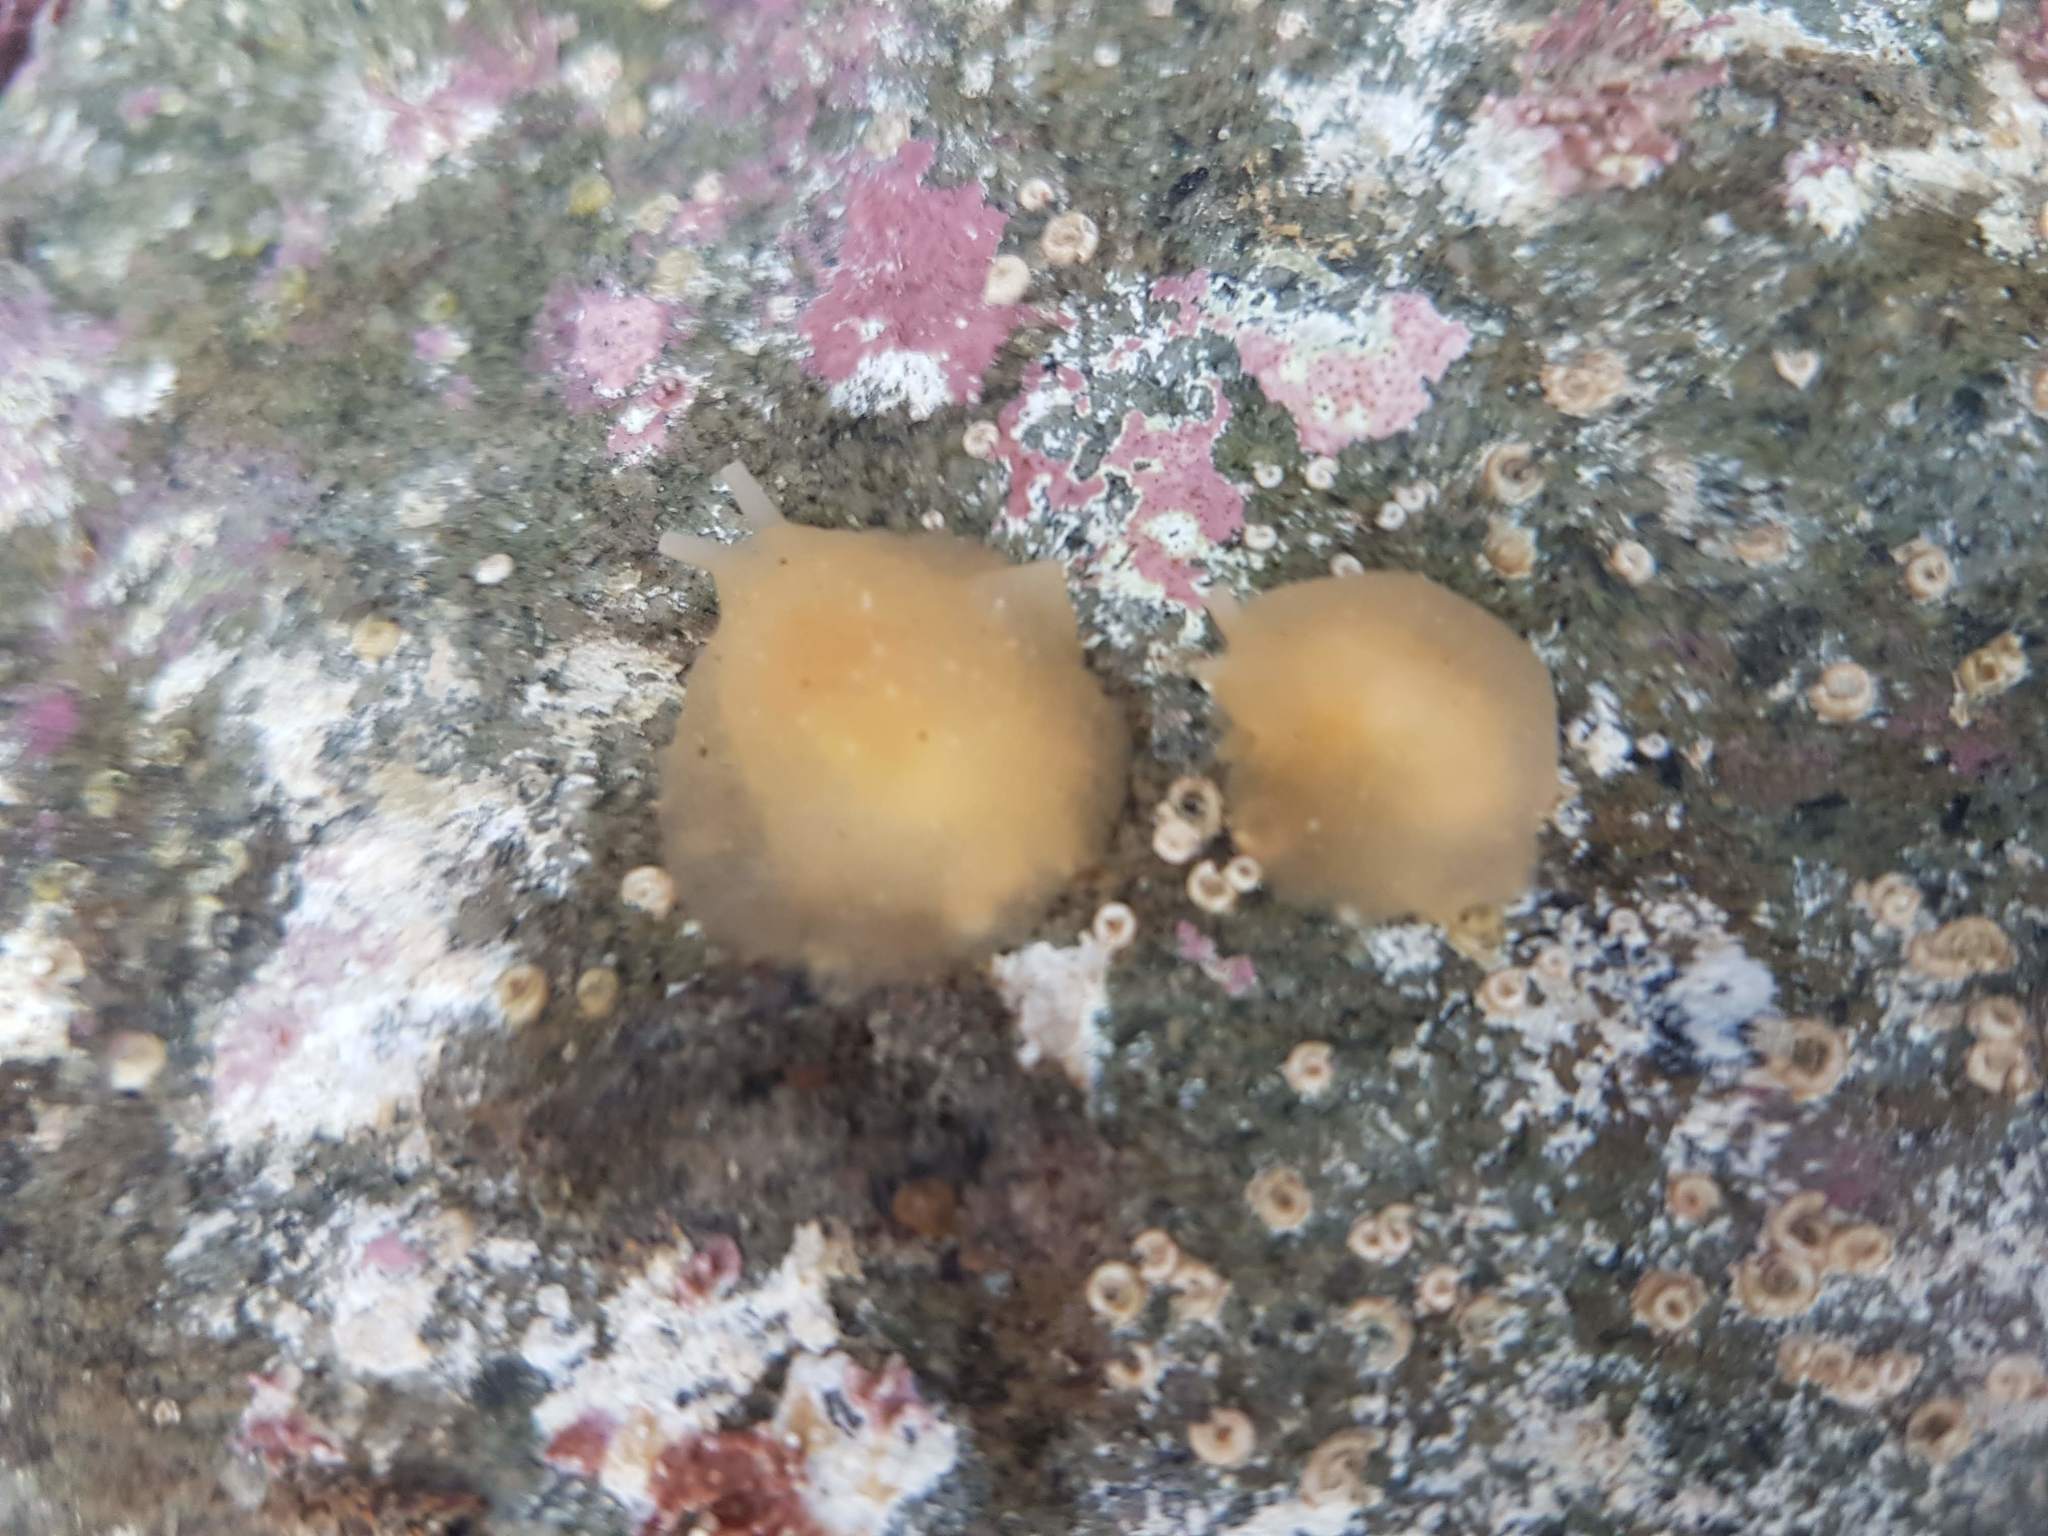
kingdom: Animalia
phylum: Mollusca
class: Gastropoda
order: Pleurobranchida
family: Pleurobranchidae
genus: Berthella
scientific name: Berthella medietas
